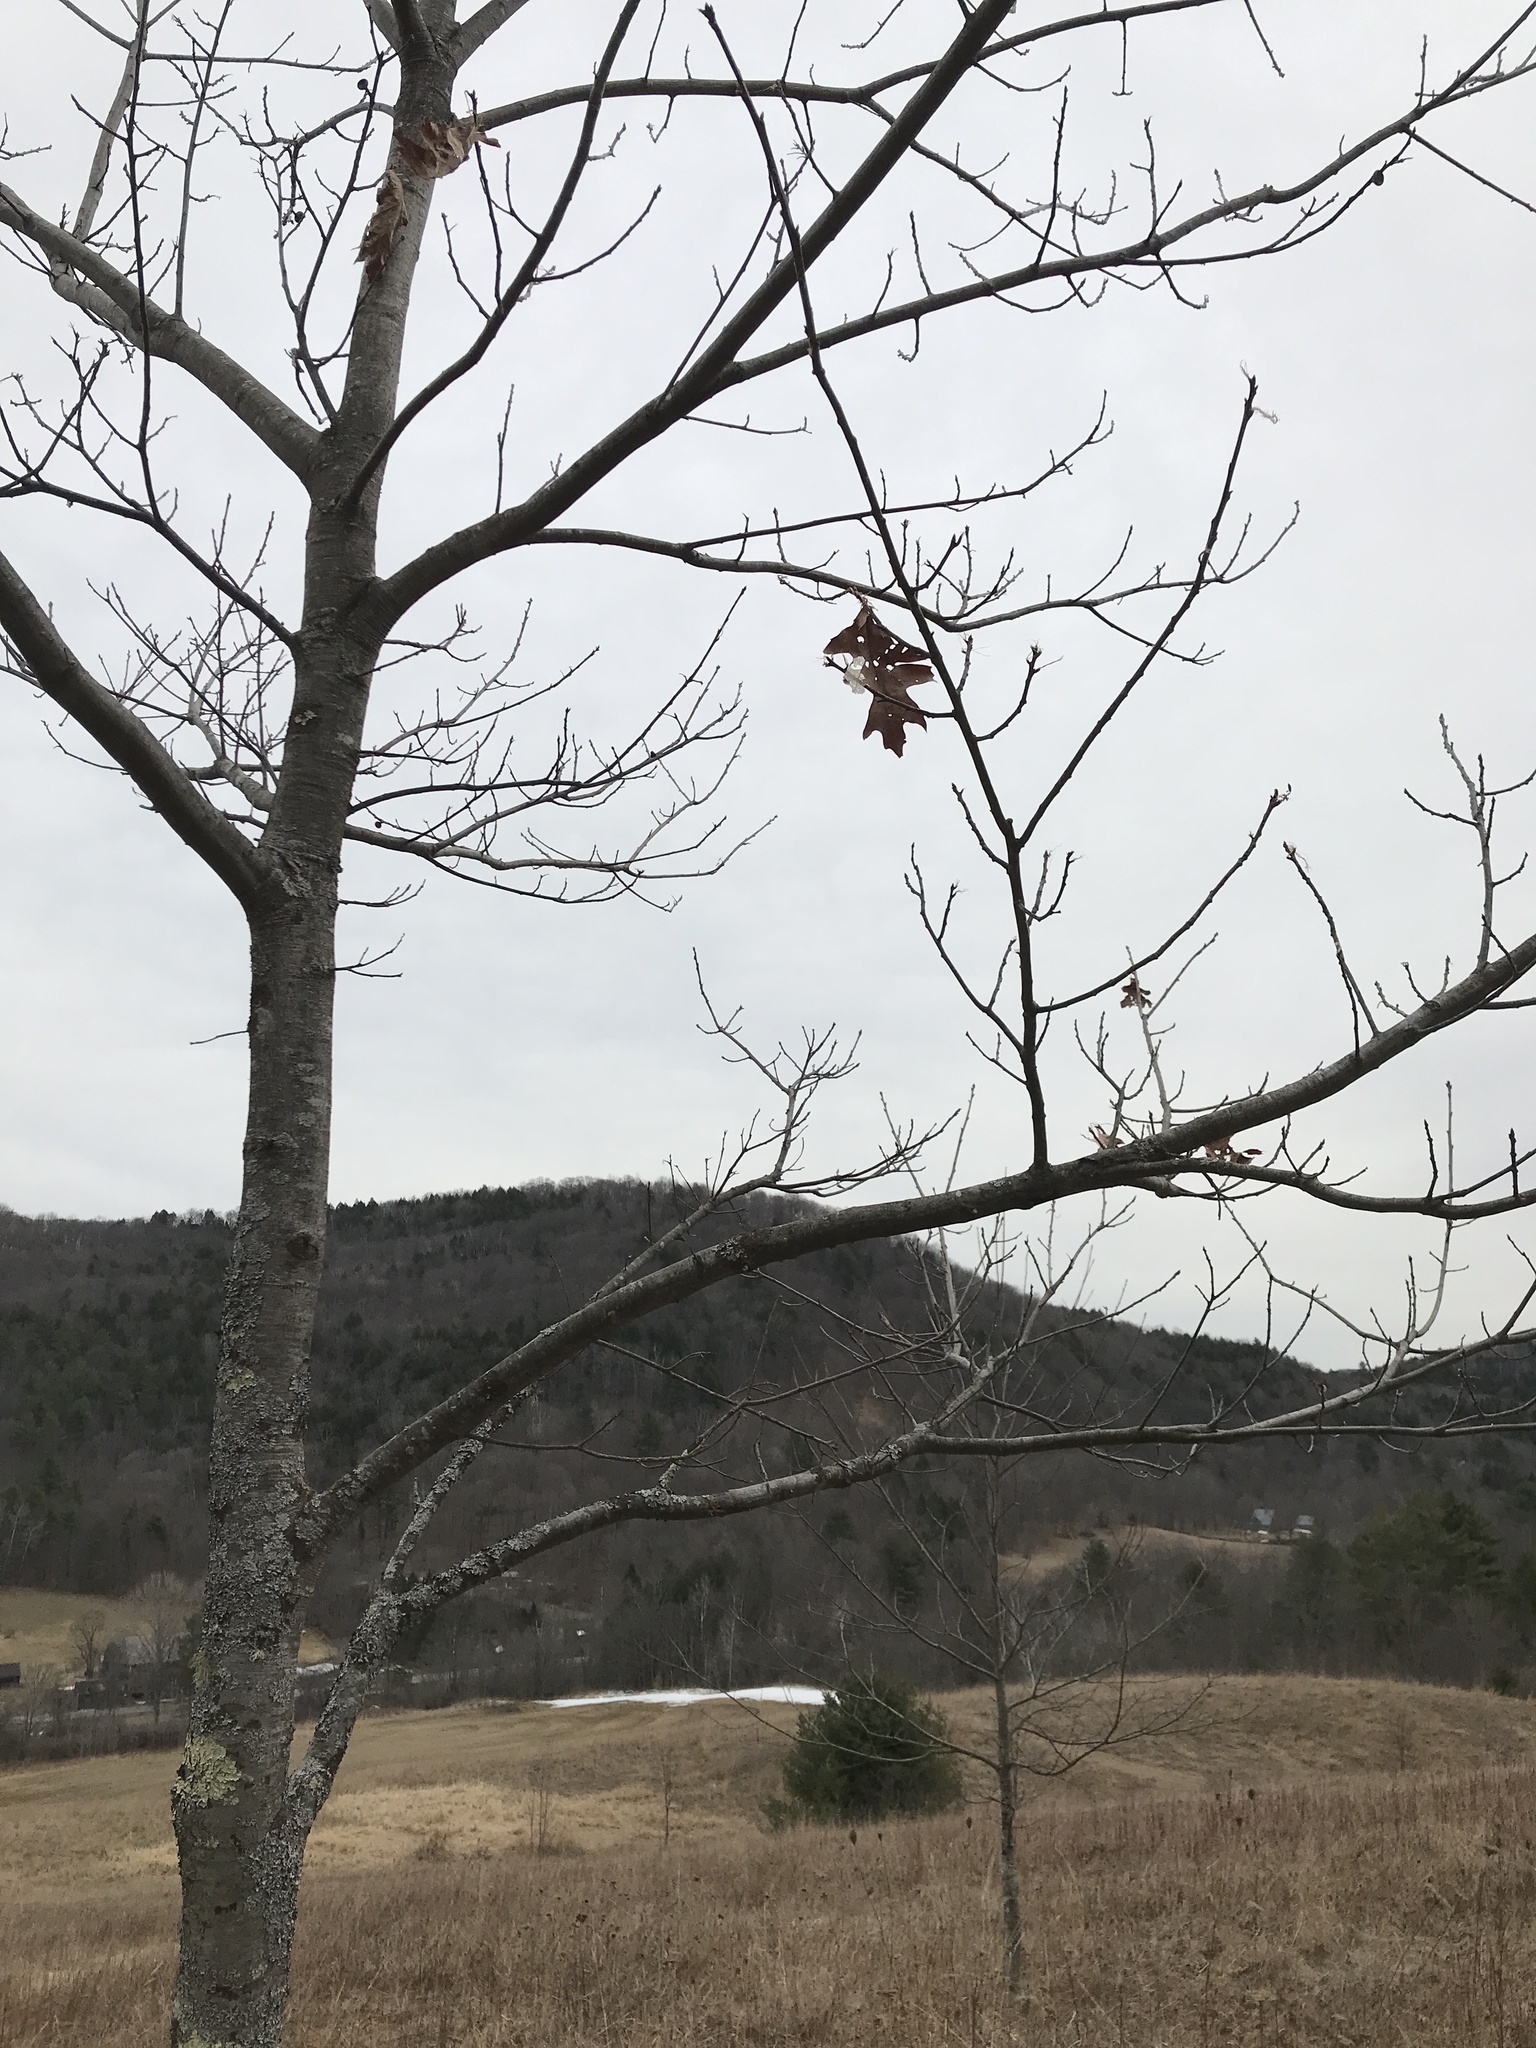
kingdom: Plantae
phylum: Tracheophyta
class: Magnoliopsida
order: Fagales
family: Fagaceae
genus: Quercus
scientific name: Quercus rubra
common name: Red oak
